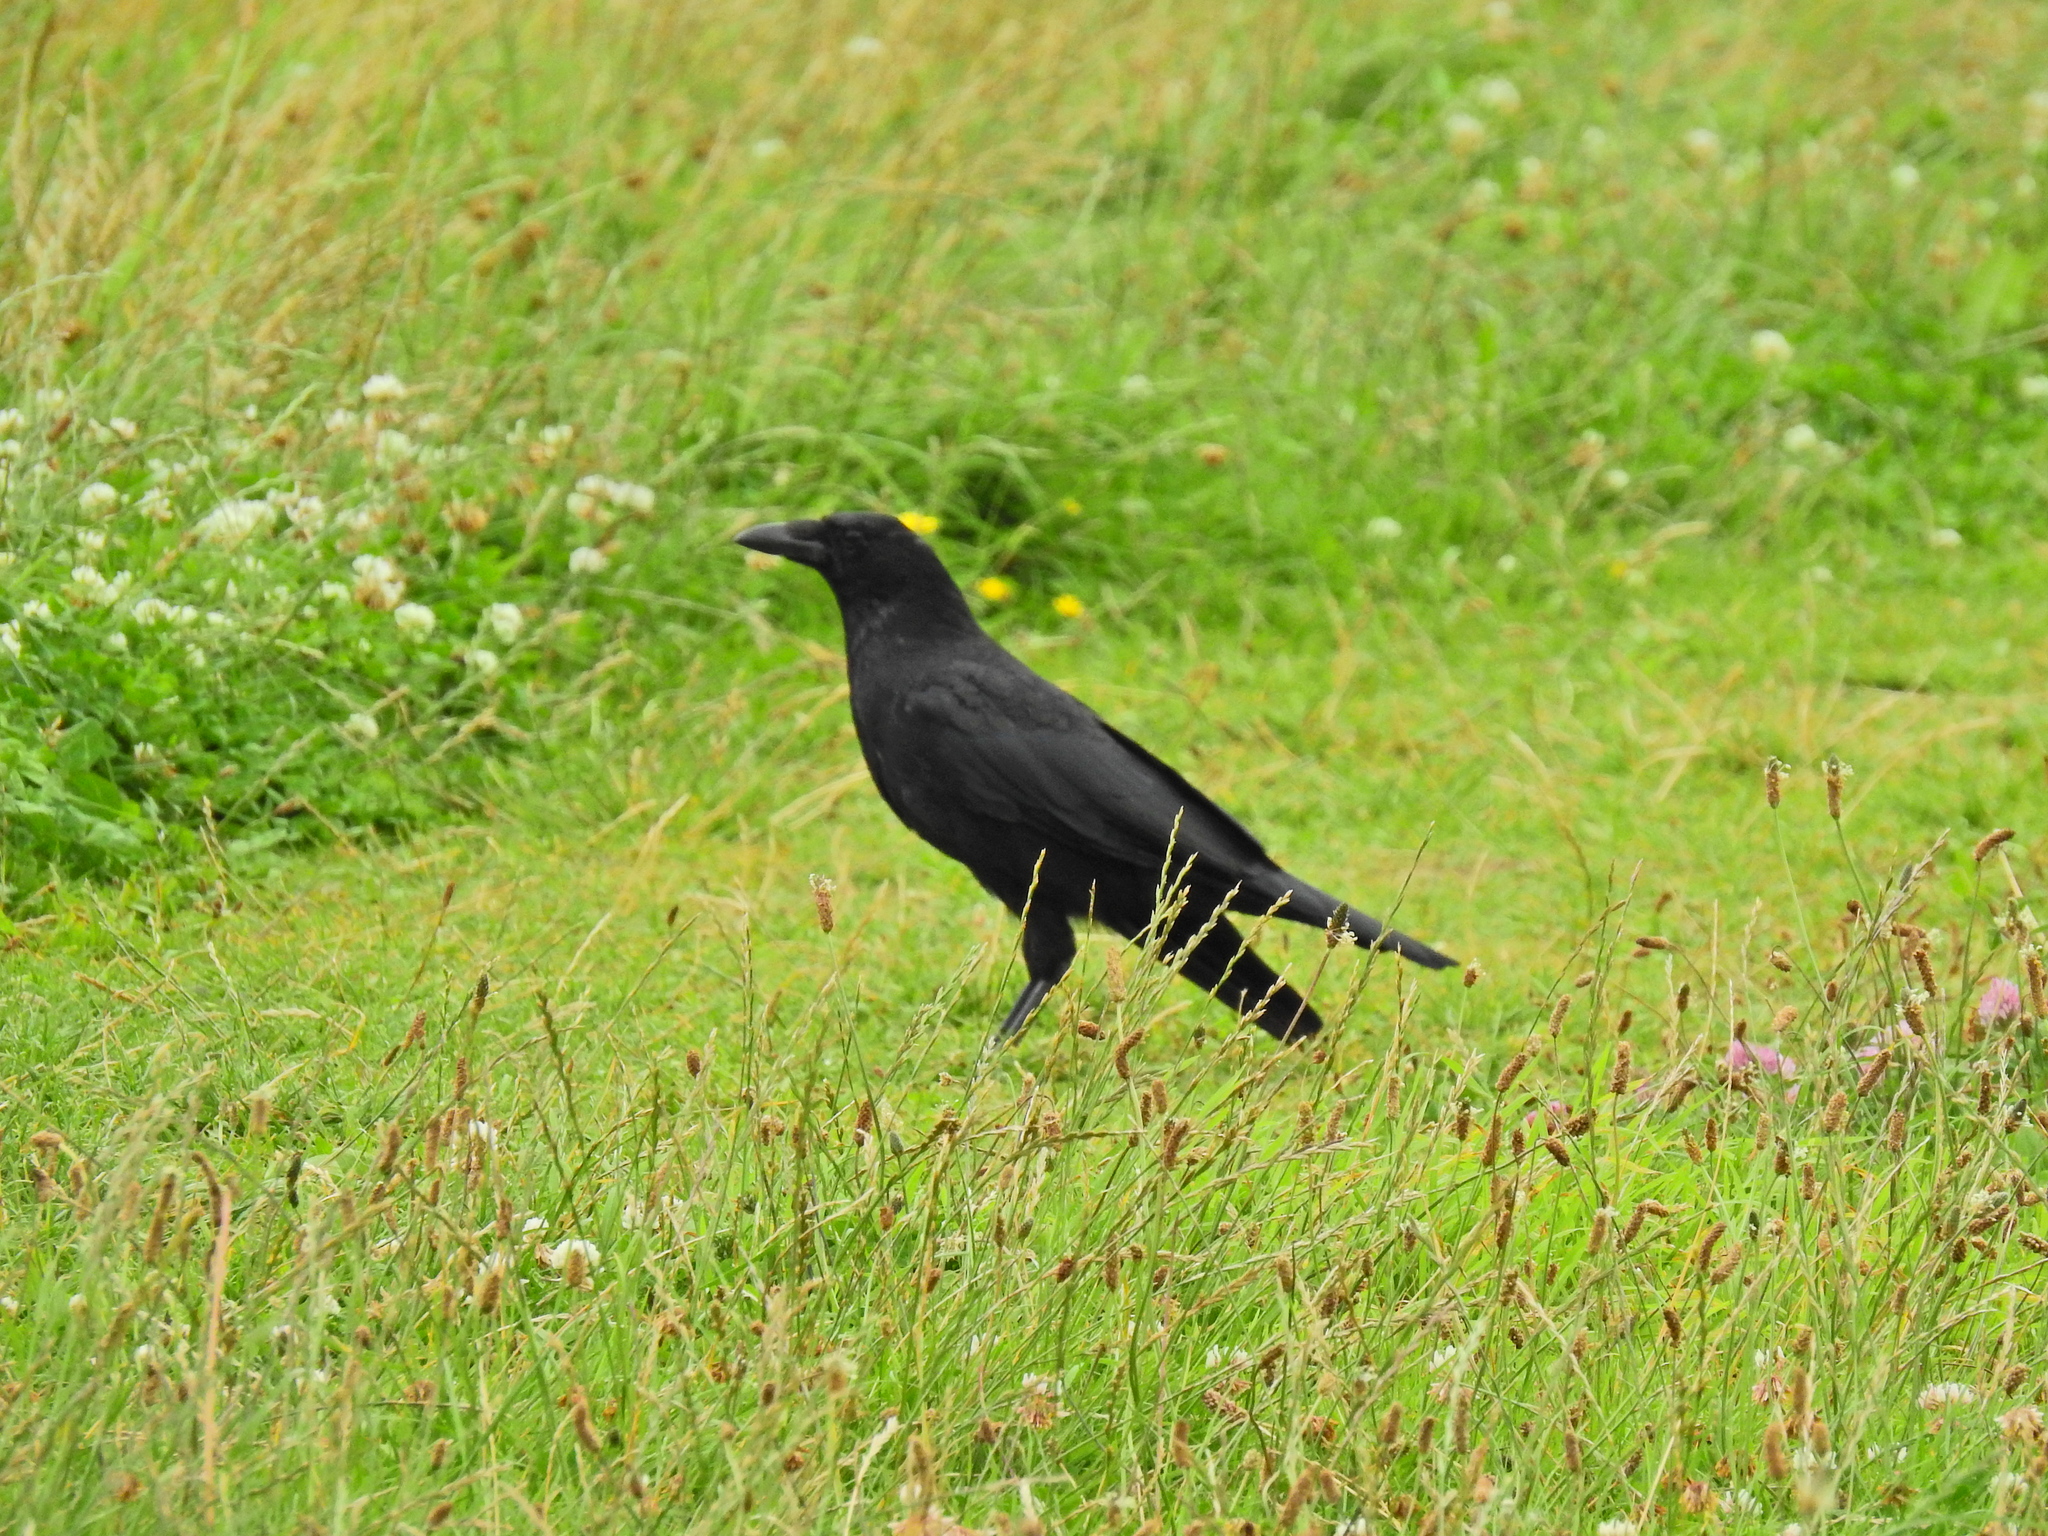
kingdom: Animalia
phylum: Chordata
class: Aves
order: Passeriformes
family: Corvidae
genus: Corvus
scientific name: Corvus corone
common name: Carrion crow
